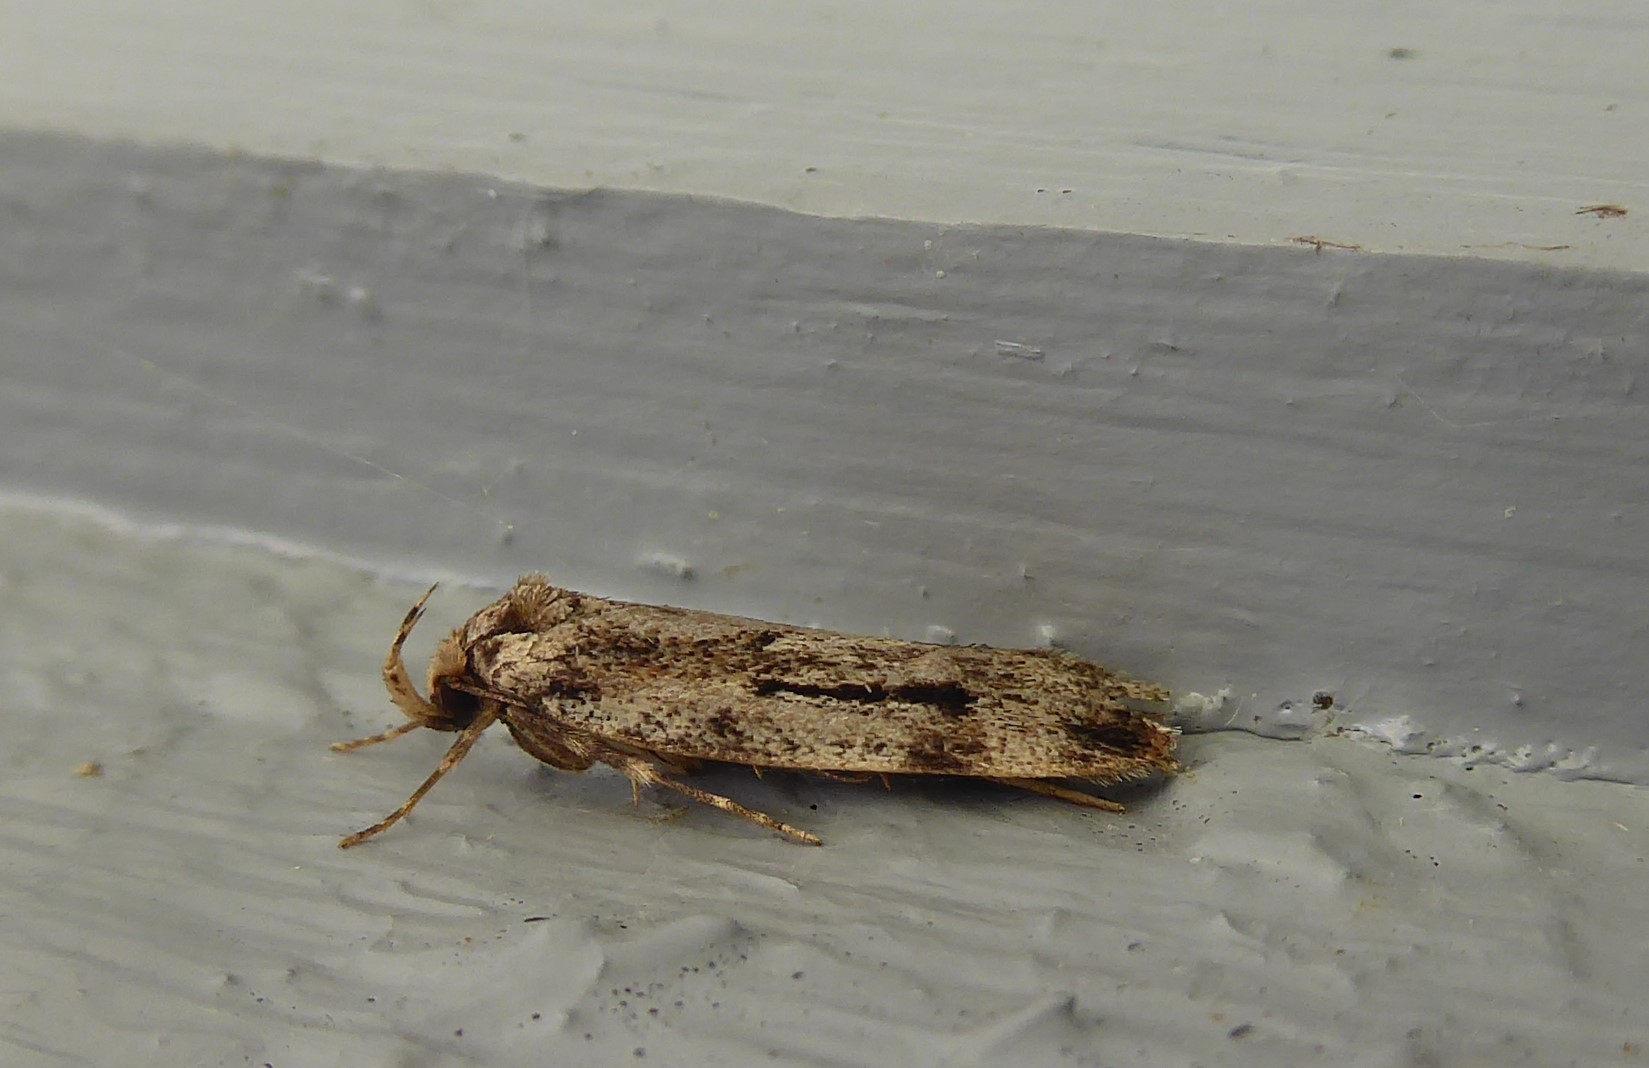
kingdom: Animalia
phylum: Arthropoda
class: Insecta
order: Lepidoptera
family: Oecophoridae
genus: Barea
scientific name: Barea exarcha
